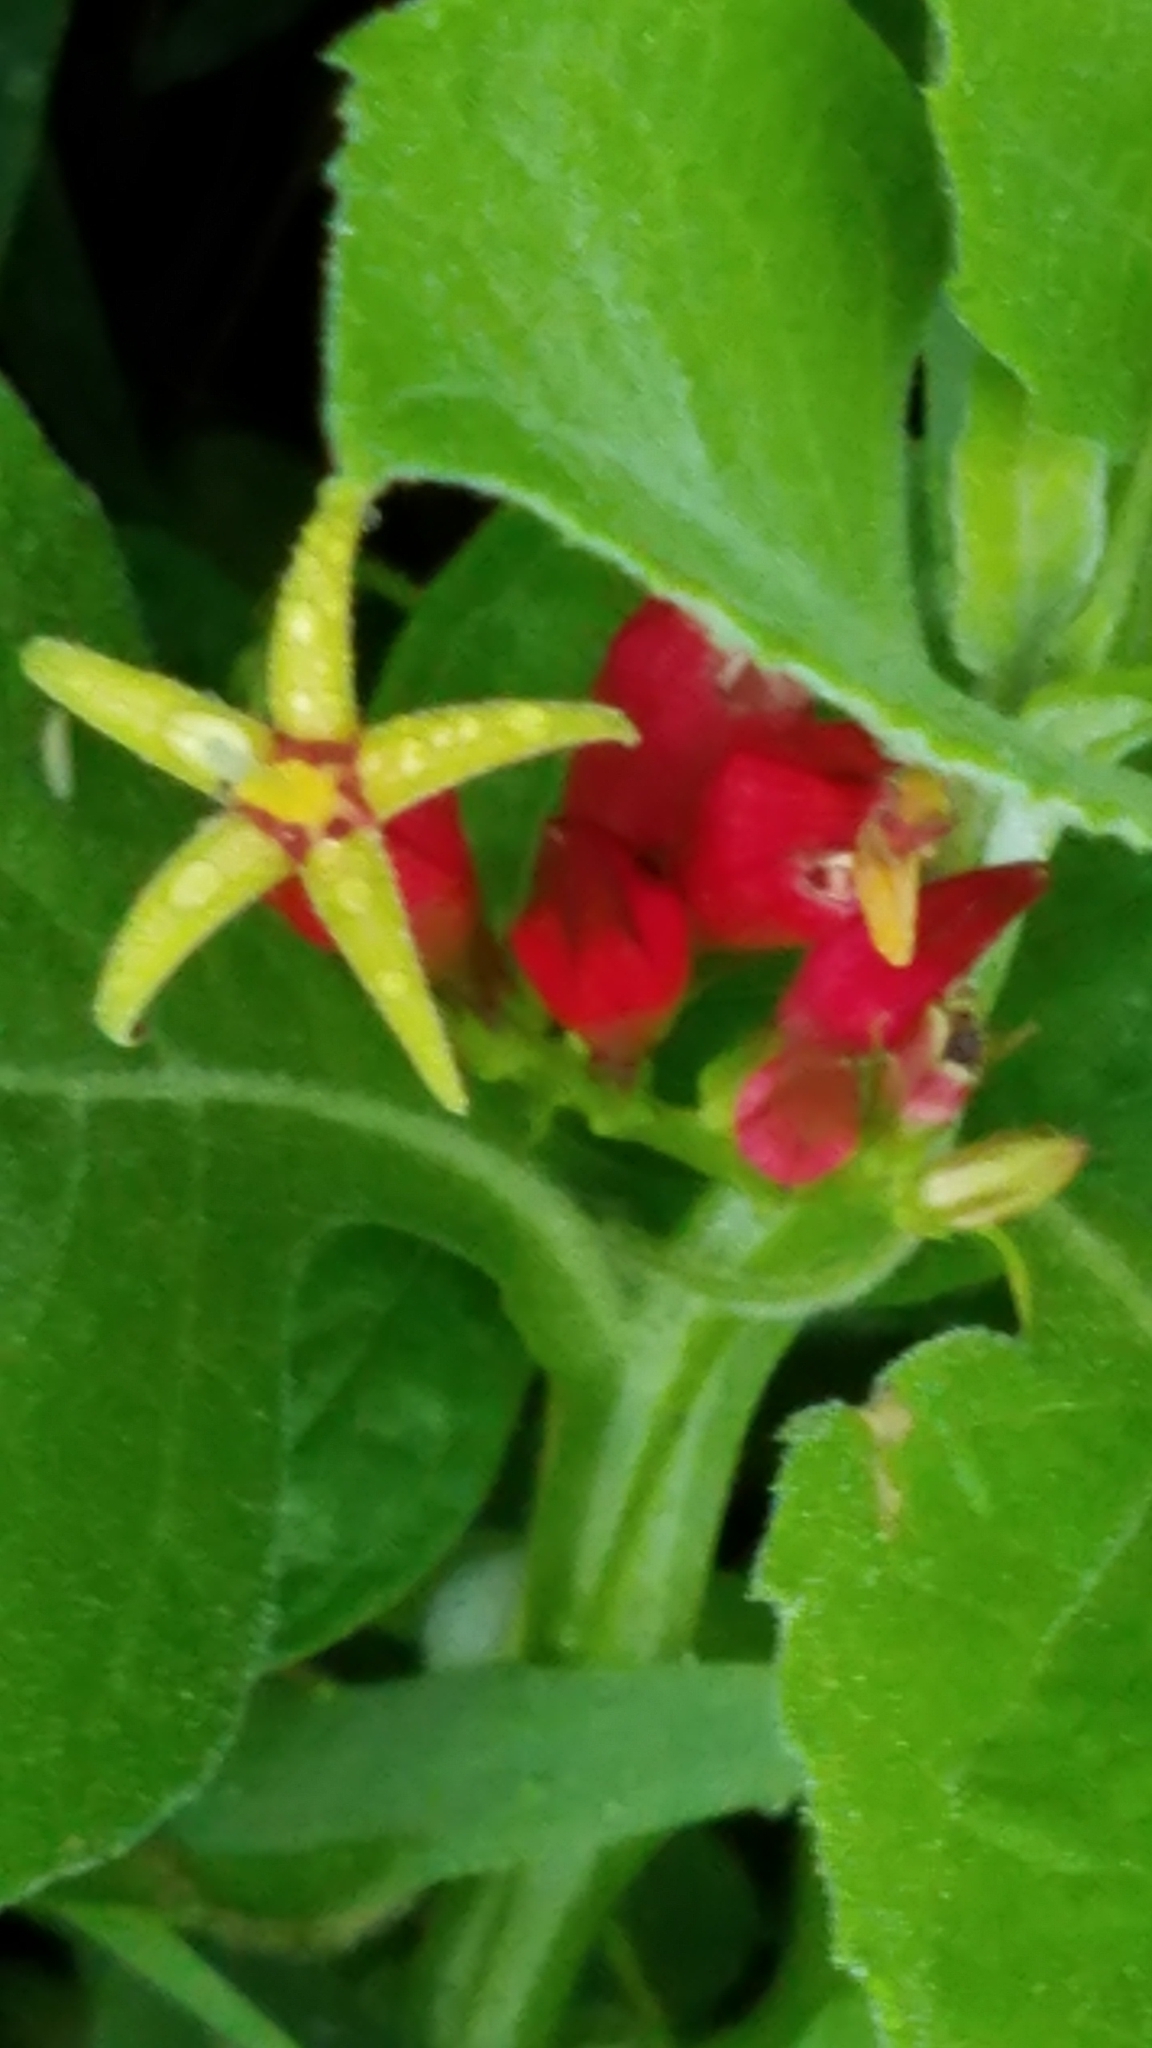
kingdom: Plantae
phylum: Tracheophyta
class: Magnoliopsida
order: Gentianales
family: Loganiaceae
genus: Spigelia
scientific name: Spigelia marilandica
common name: Indian-pink
